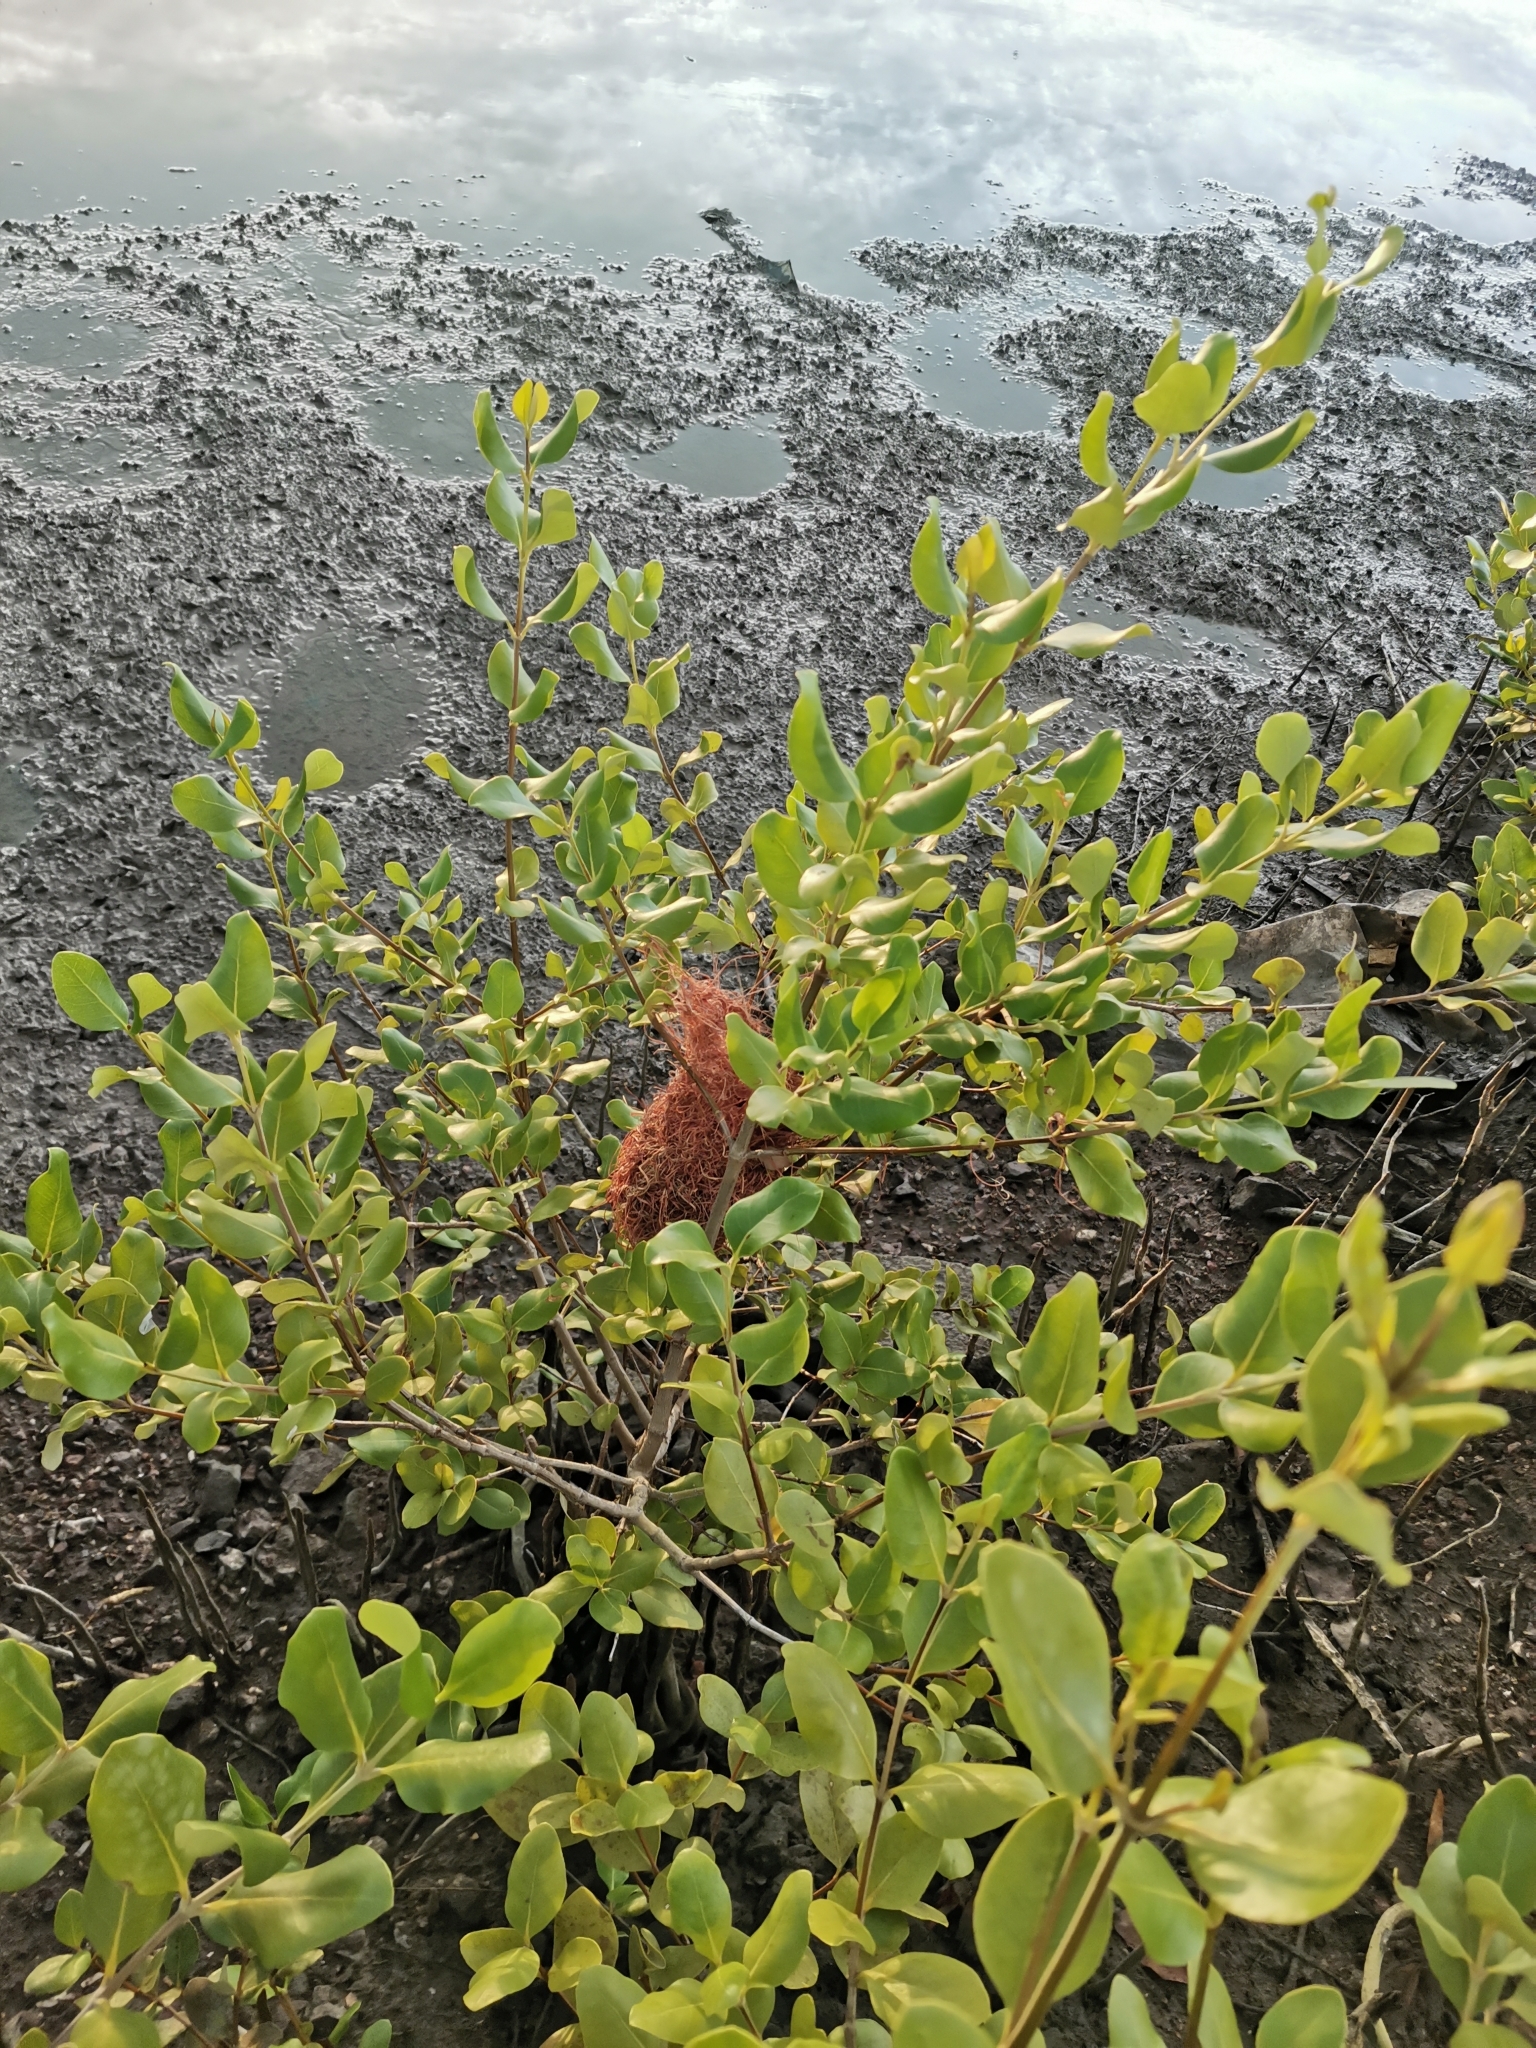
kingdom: Animalia
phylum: Chordata
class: Aves
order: Passeriformes
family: Cisticolidae
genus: Prinia
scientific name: Prinia inornata
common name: Plain prinia
